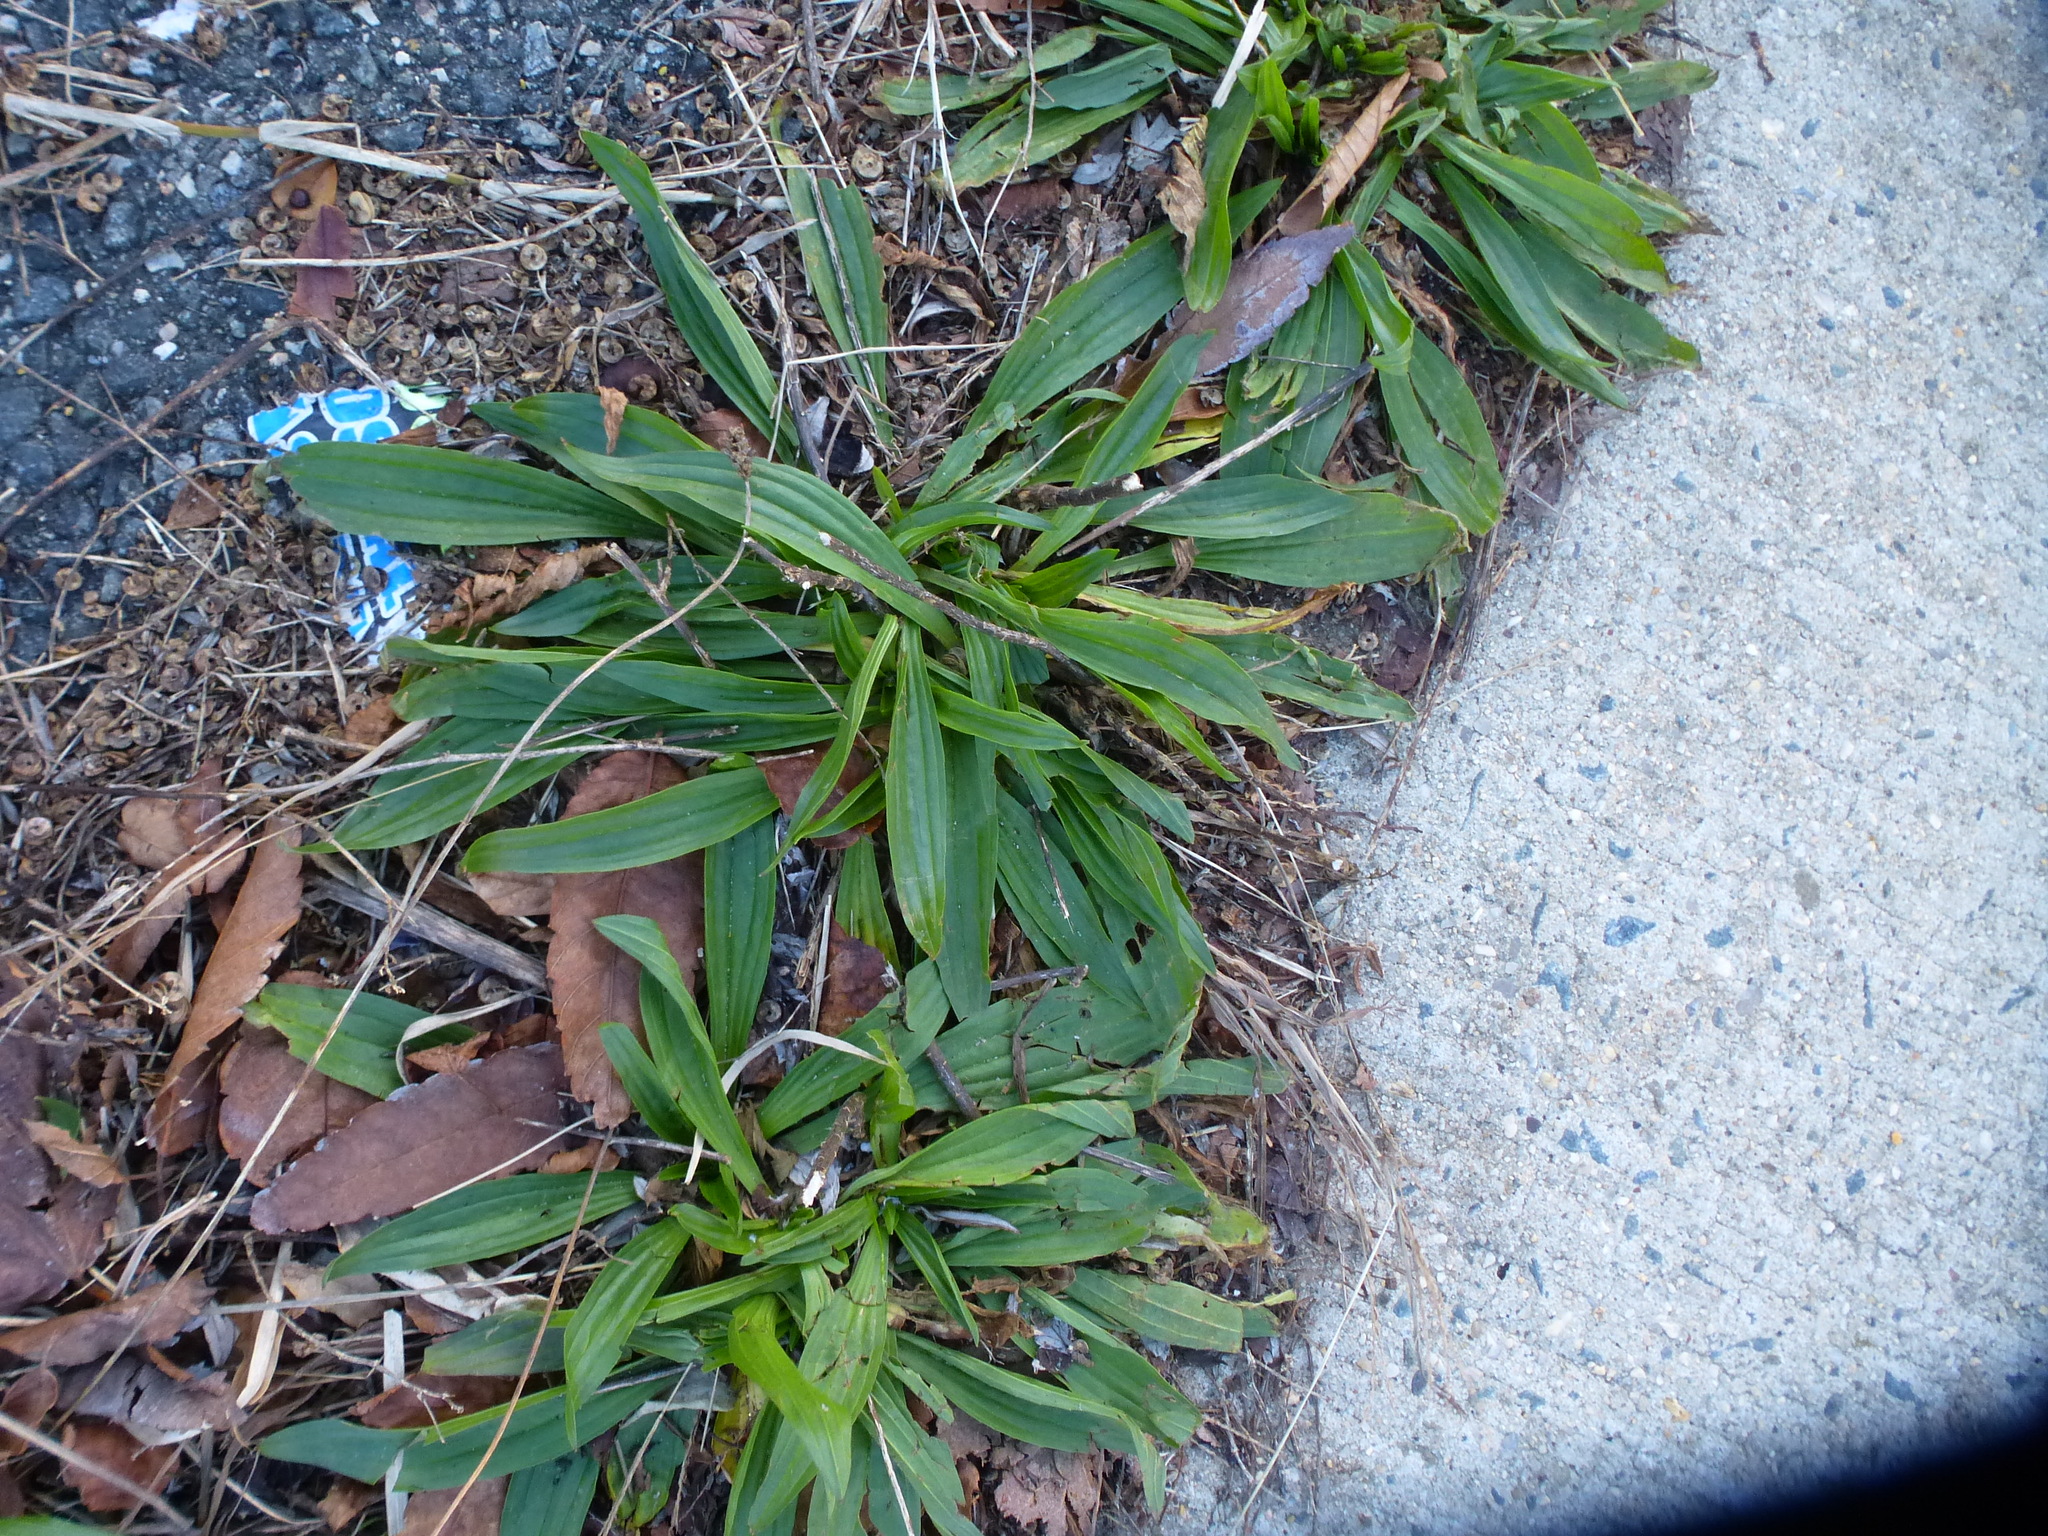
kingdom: Plantae
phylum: Tracheophyta
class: Magnoliopsida
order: Lamiales
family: Plantaginaceae
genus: Plantago
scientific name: Plantago lanceolata
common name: Ribwort plantain
